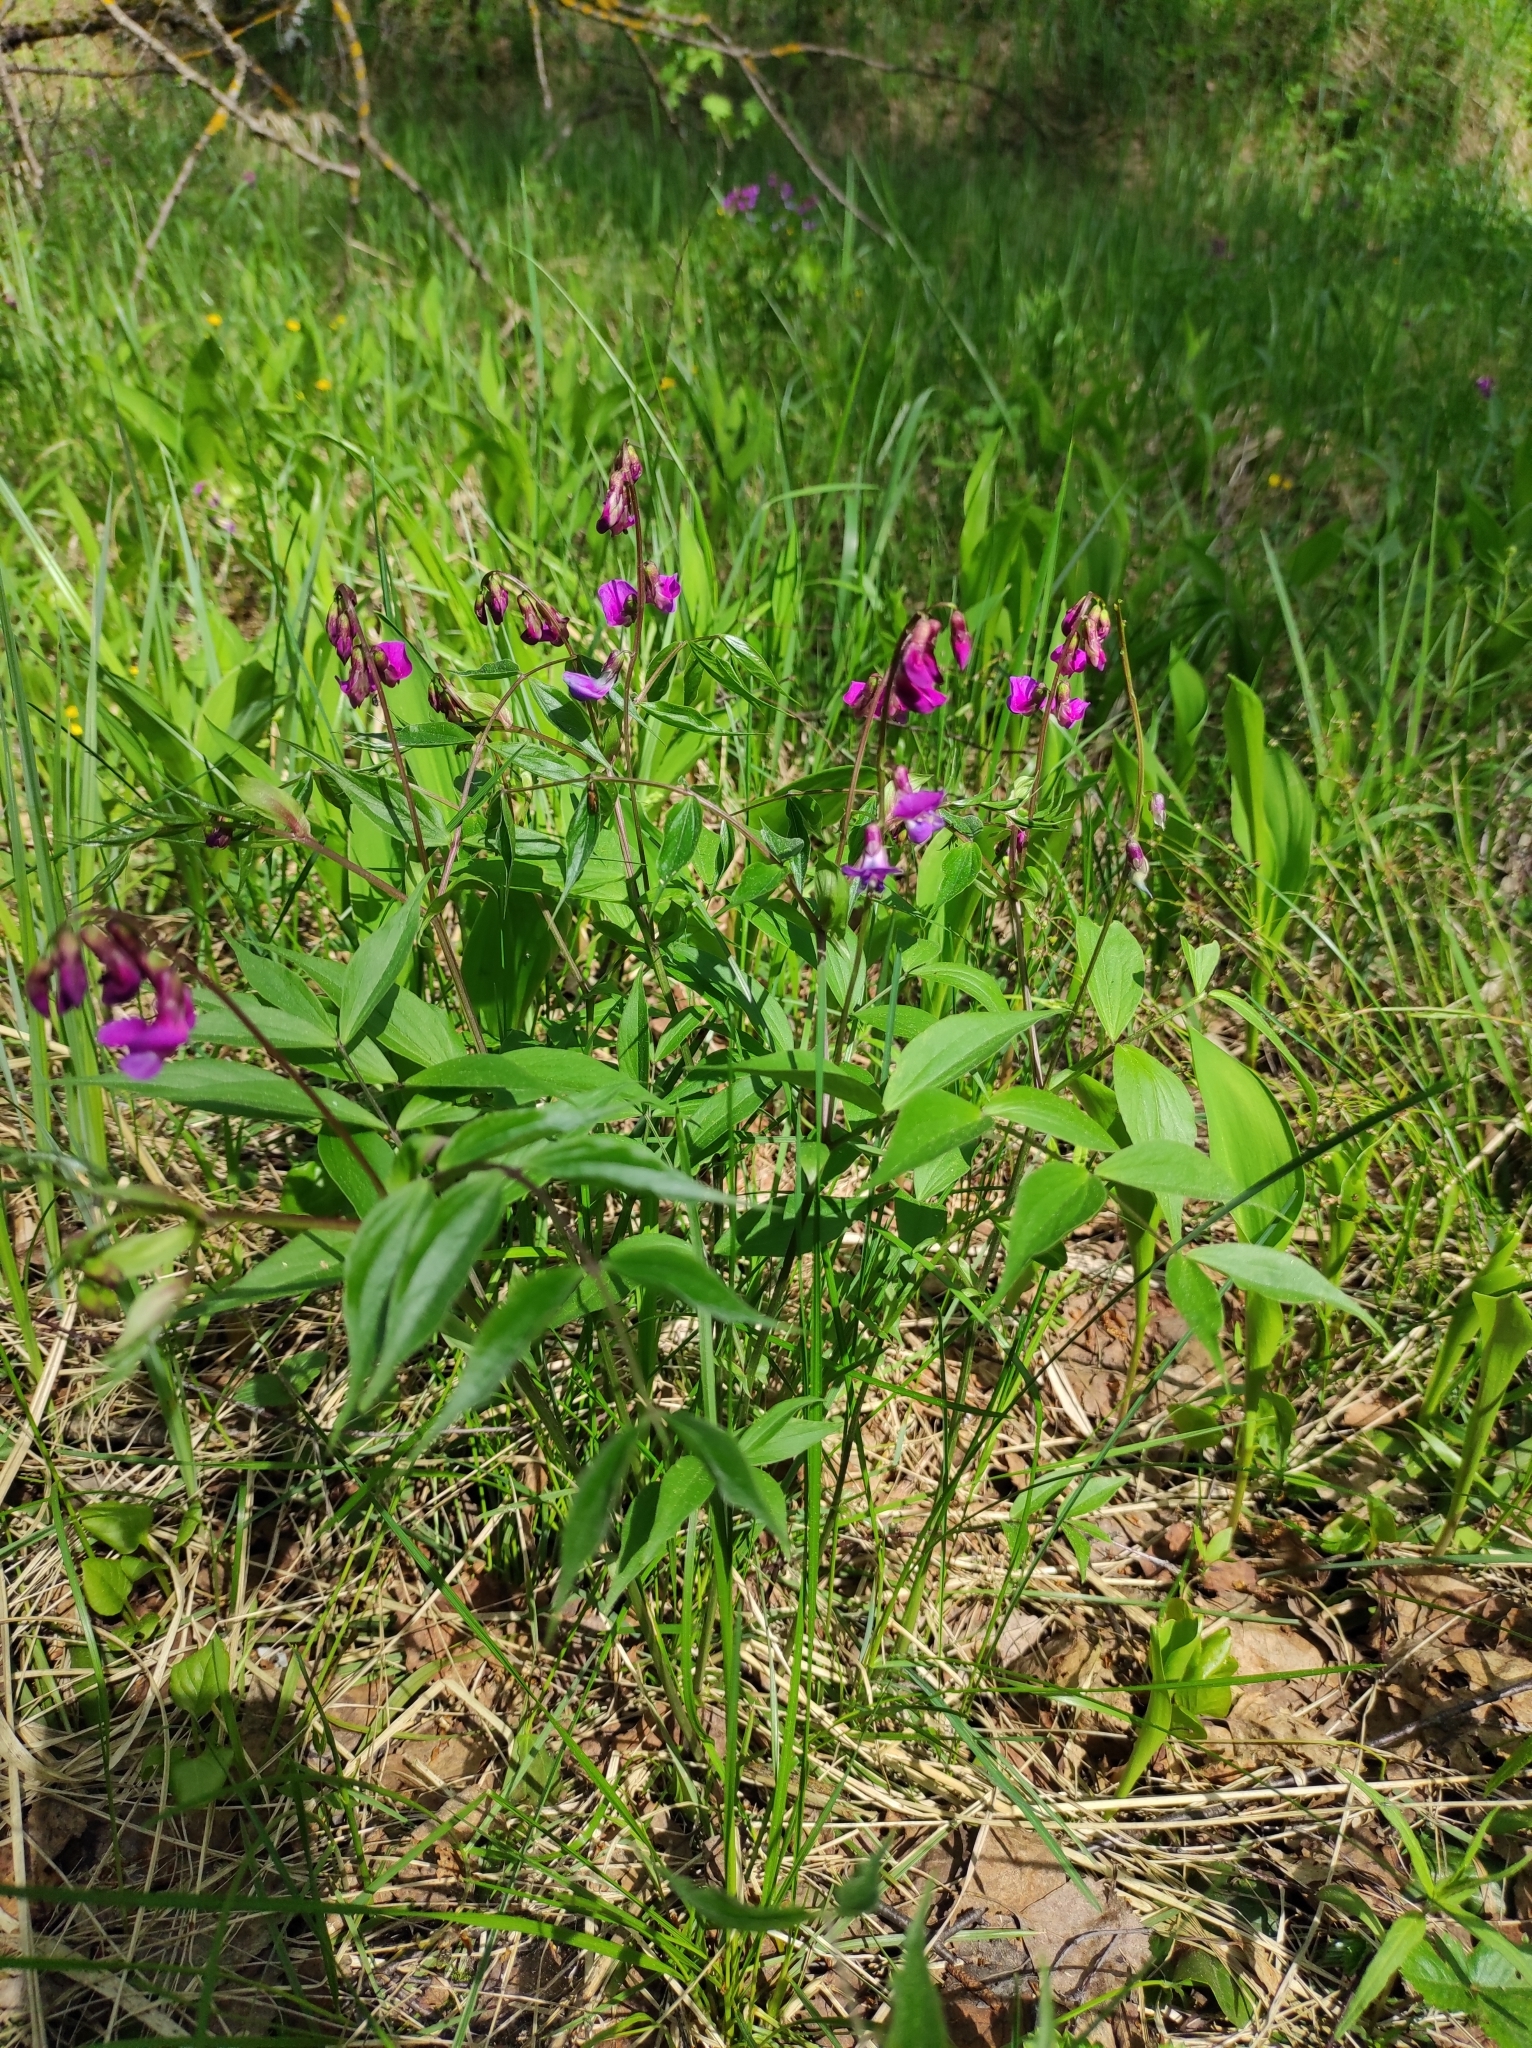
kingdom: Plantae
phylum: Tracheophyta
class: Magnoliopsida
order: Fabales
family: Fabaceae
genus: Lathyrus
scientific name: Lathyrus vernus
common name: Spring pea
